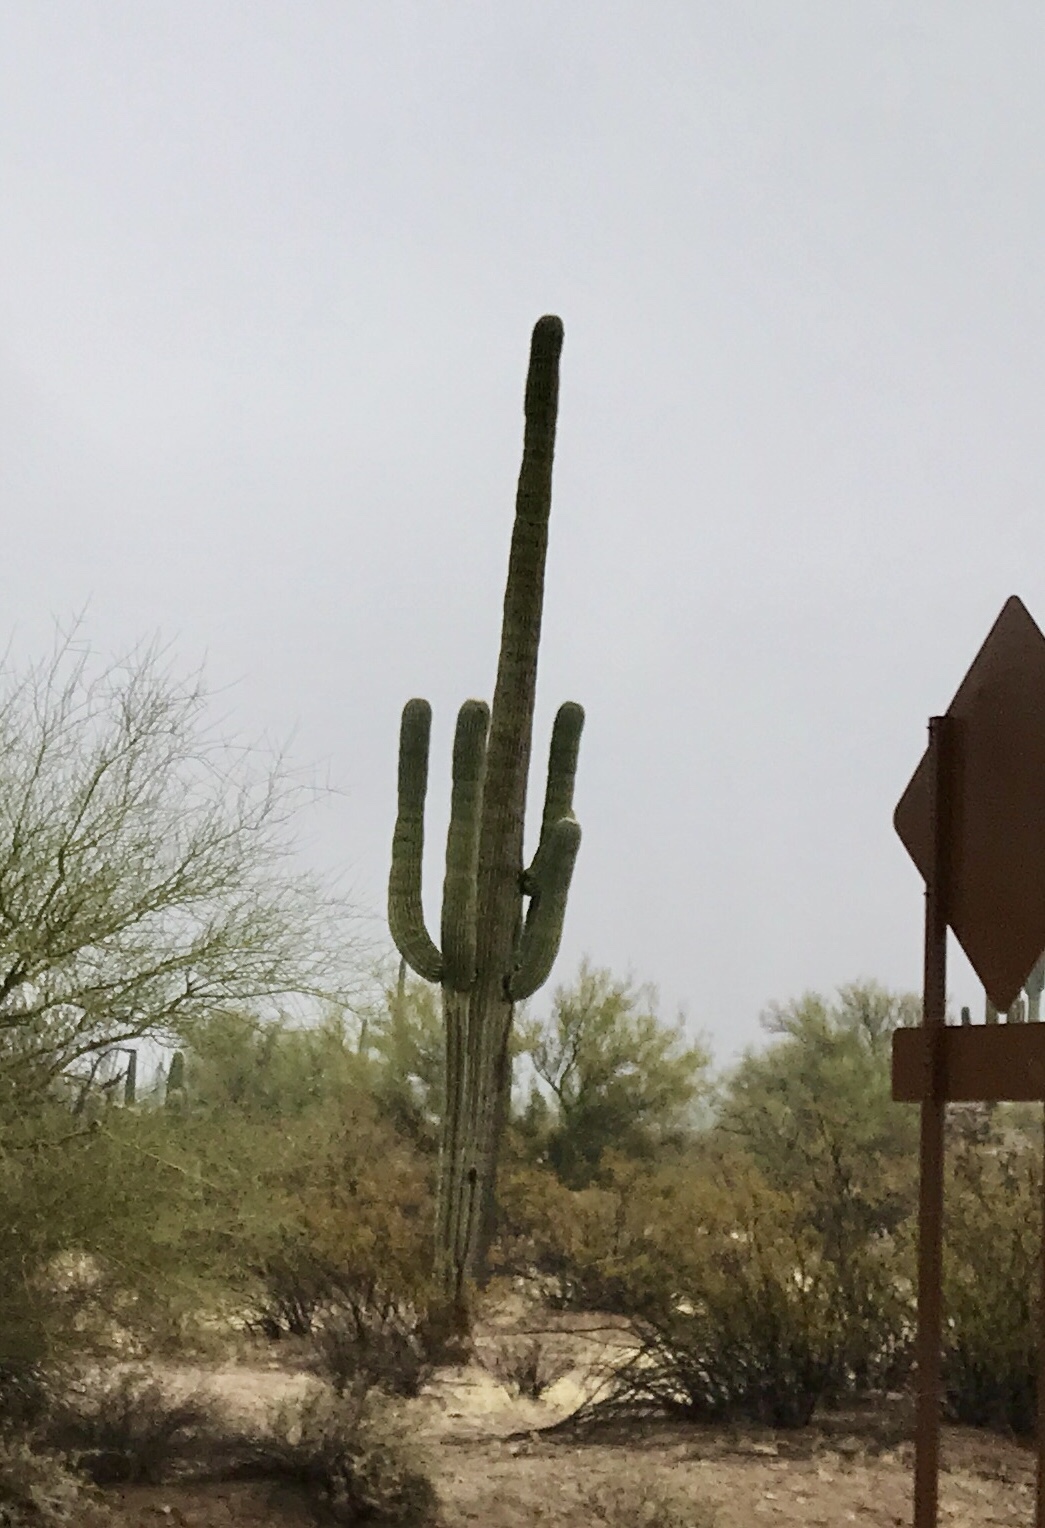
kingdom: Plantae
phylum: Tracheophyta
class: Magnoliopsida
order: Caryophyllales
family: Cactaceae
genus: Carnegiea
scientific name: Carnegiea gigantea
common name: Saguaro
